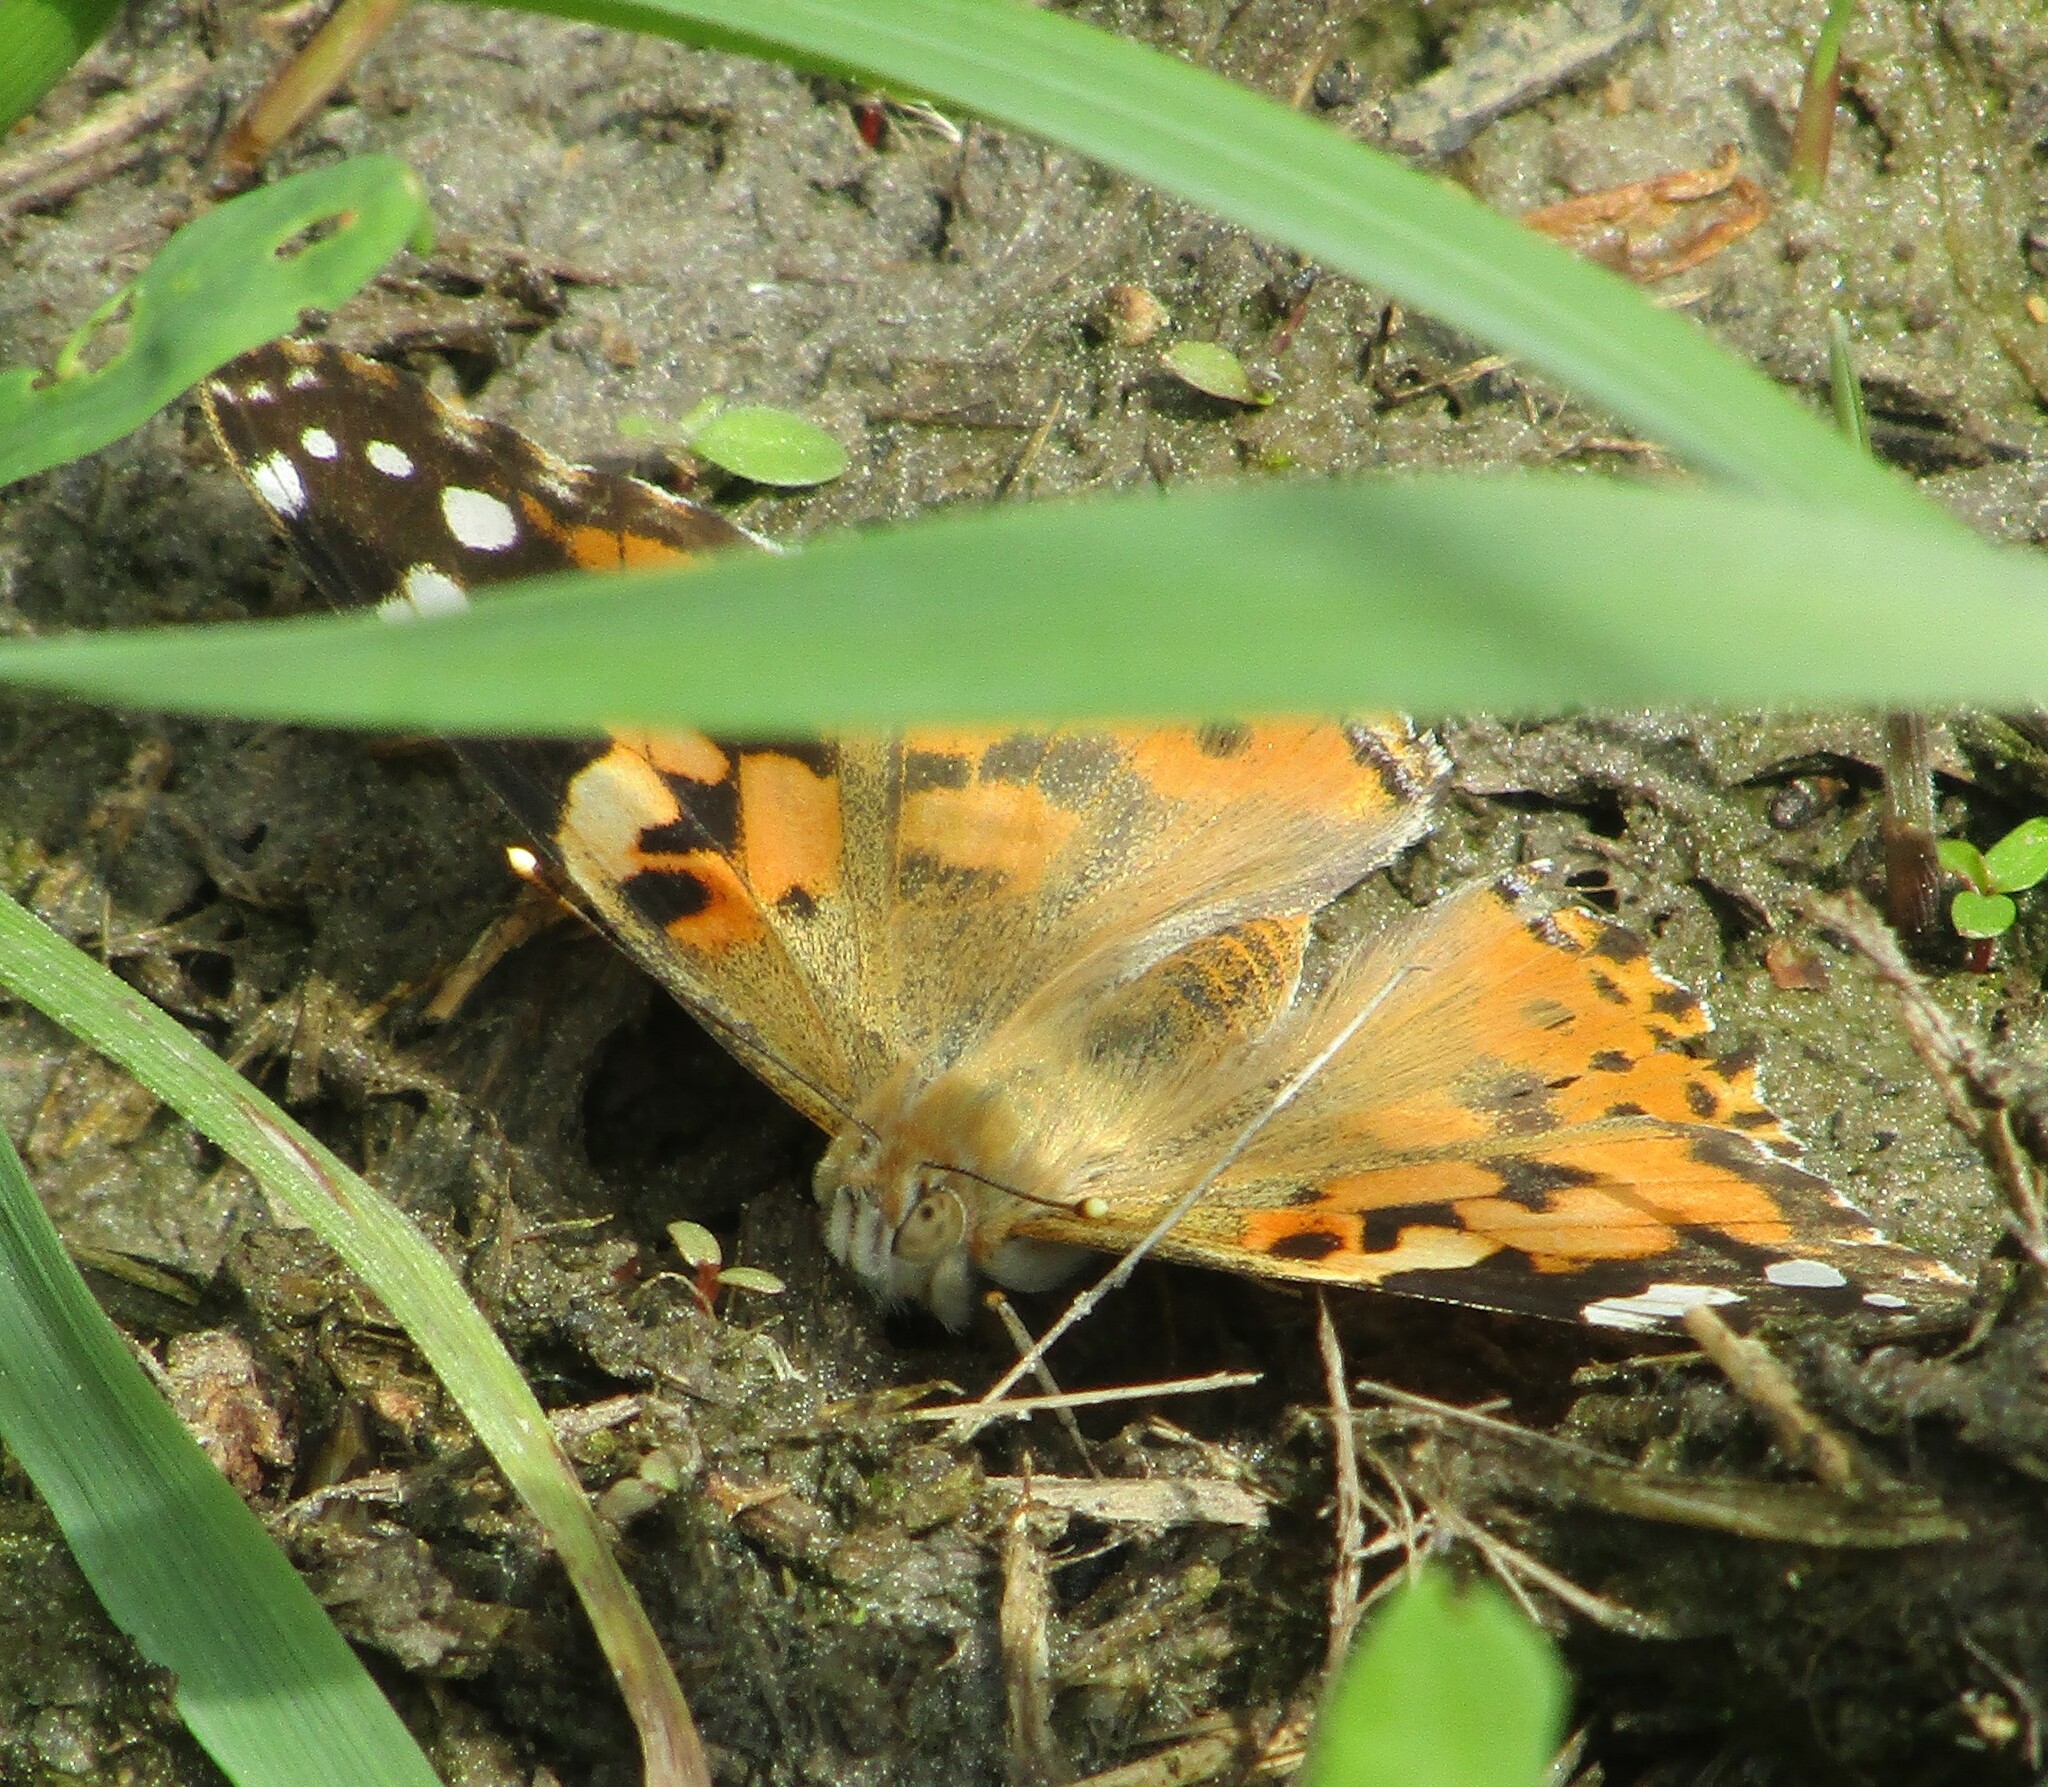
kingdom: Animalia
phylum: Arthropoda
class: Insecta
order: Lepidoptera
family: Nymphalidae
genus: Vanessa
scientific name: Vanessa cardui
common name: Painted lady
